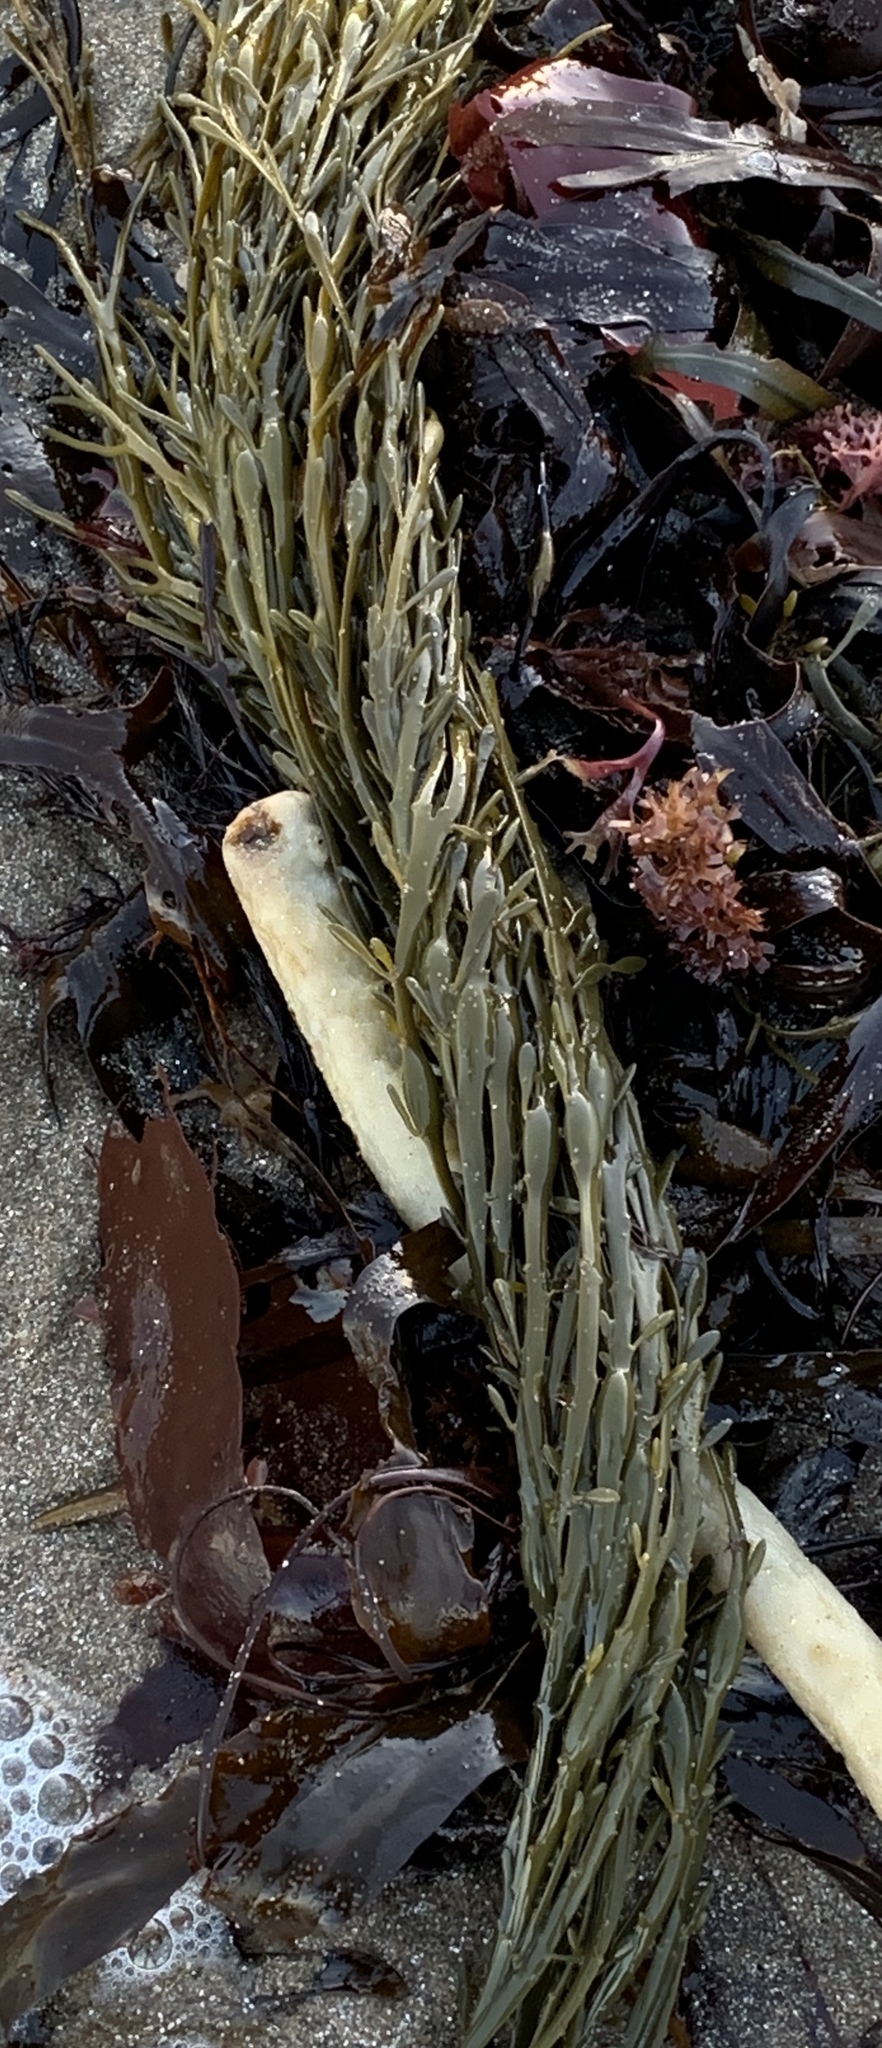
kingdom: Chromista
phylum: Ochrophyta
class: Phaeophyceae
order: Fucales
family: Fucaceae
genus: Ascophyllum
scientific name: Ascophyllum nodosum
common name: Knotted wrack
